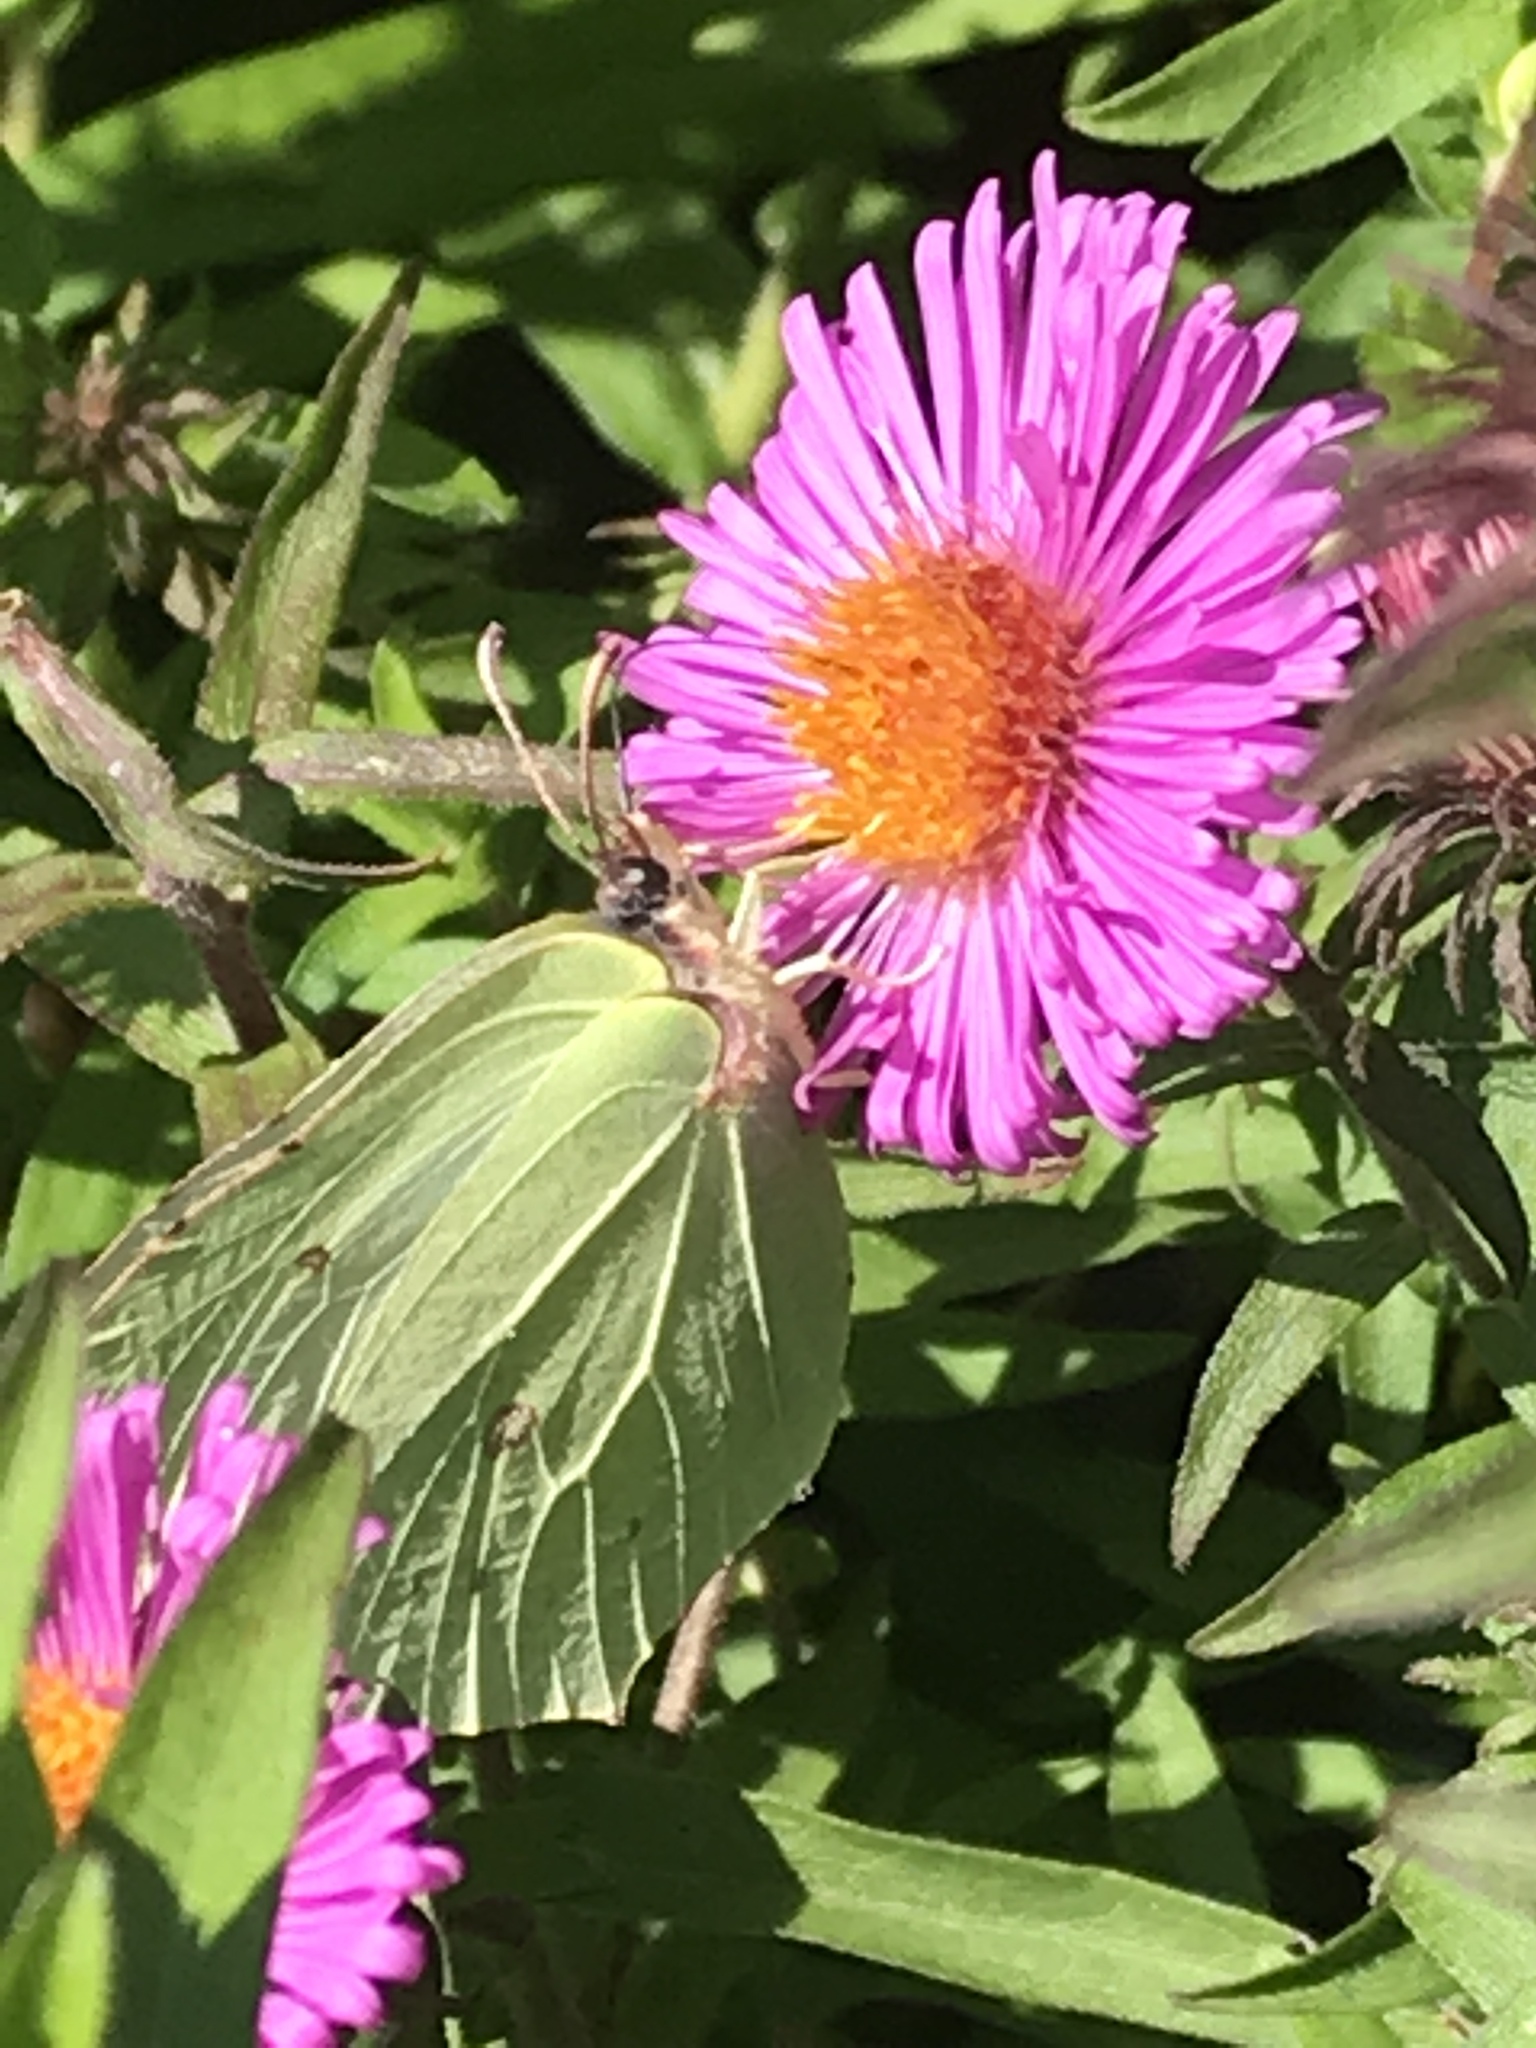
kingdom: Animalia
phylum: Arthropoda
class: Insecta
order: Lepidoptera
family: Pieridae
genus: Gonepteryx
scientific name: Gonepteryx rhamni
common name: Brimstone
